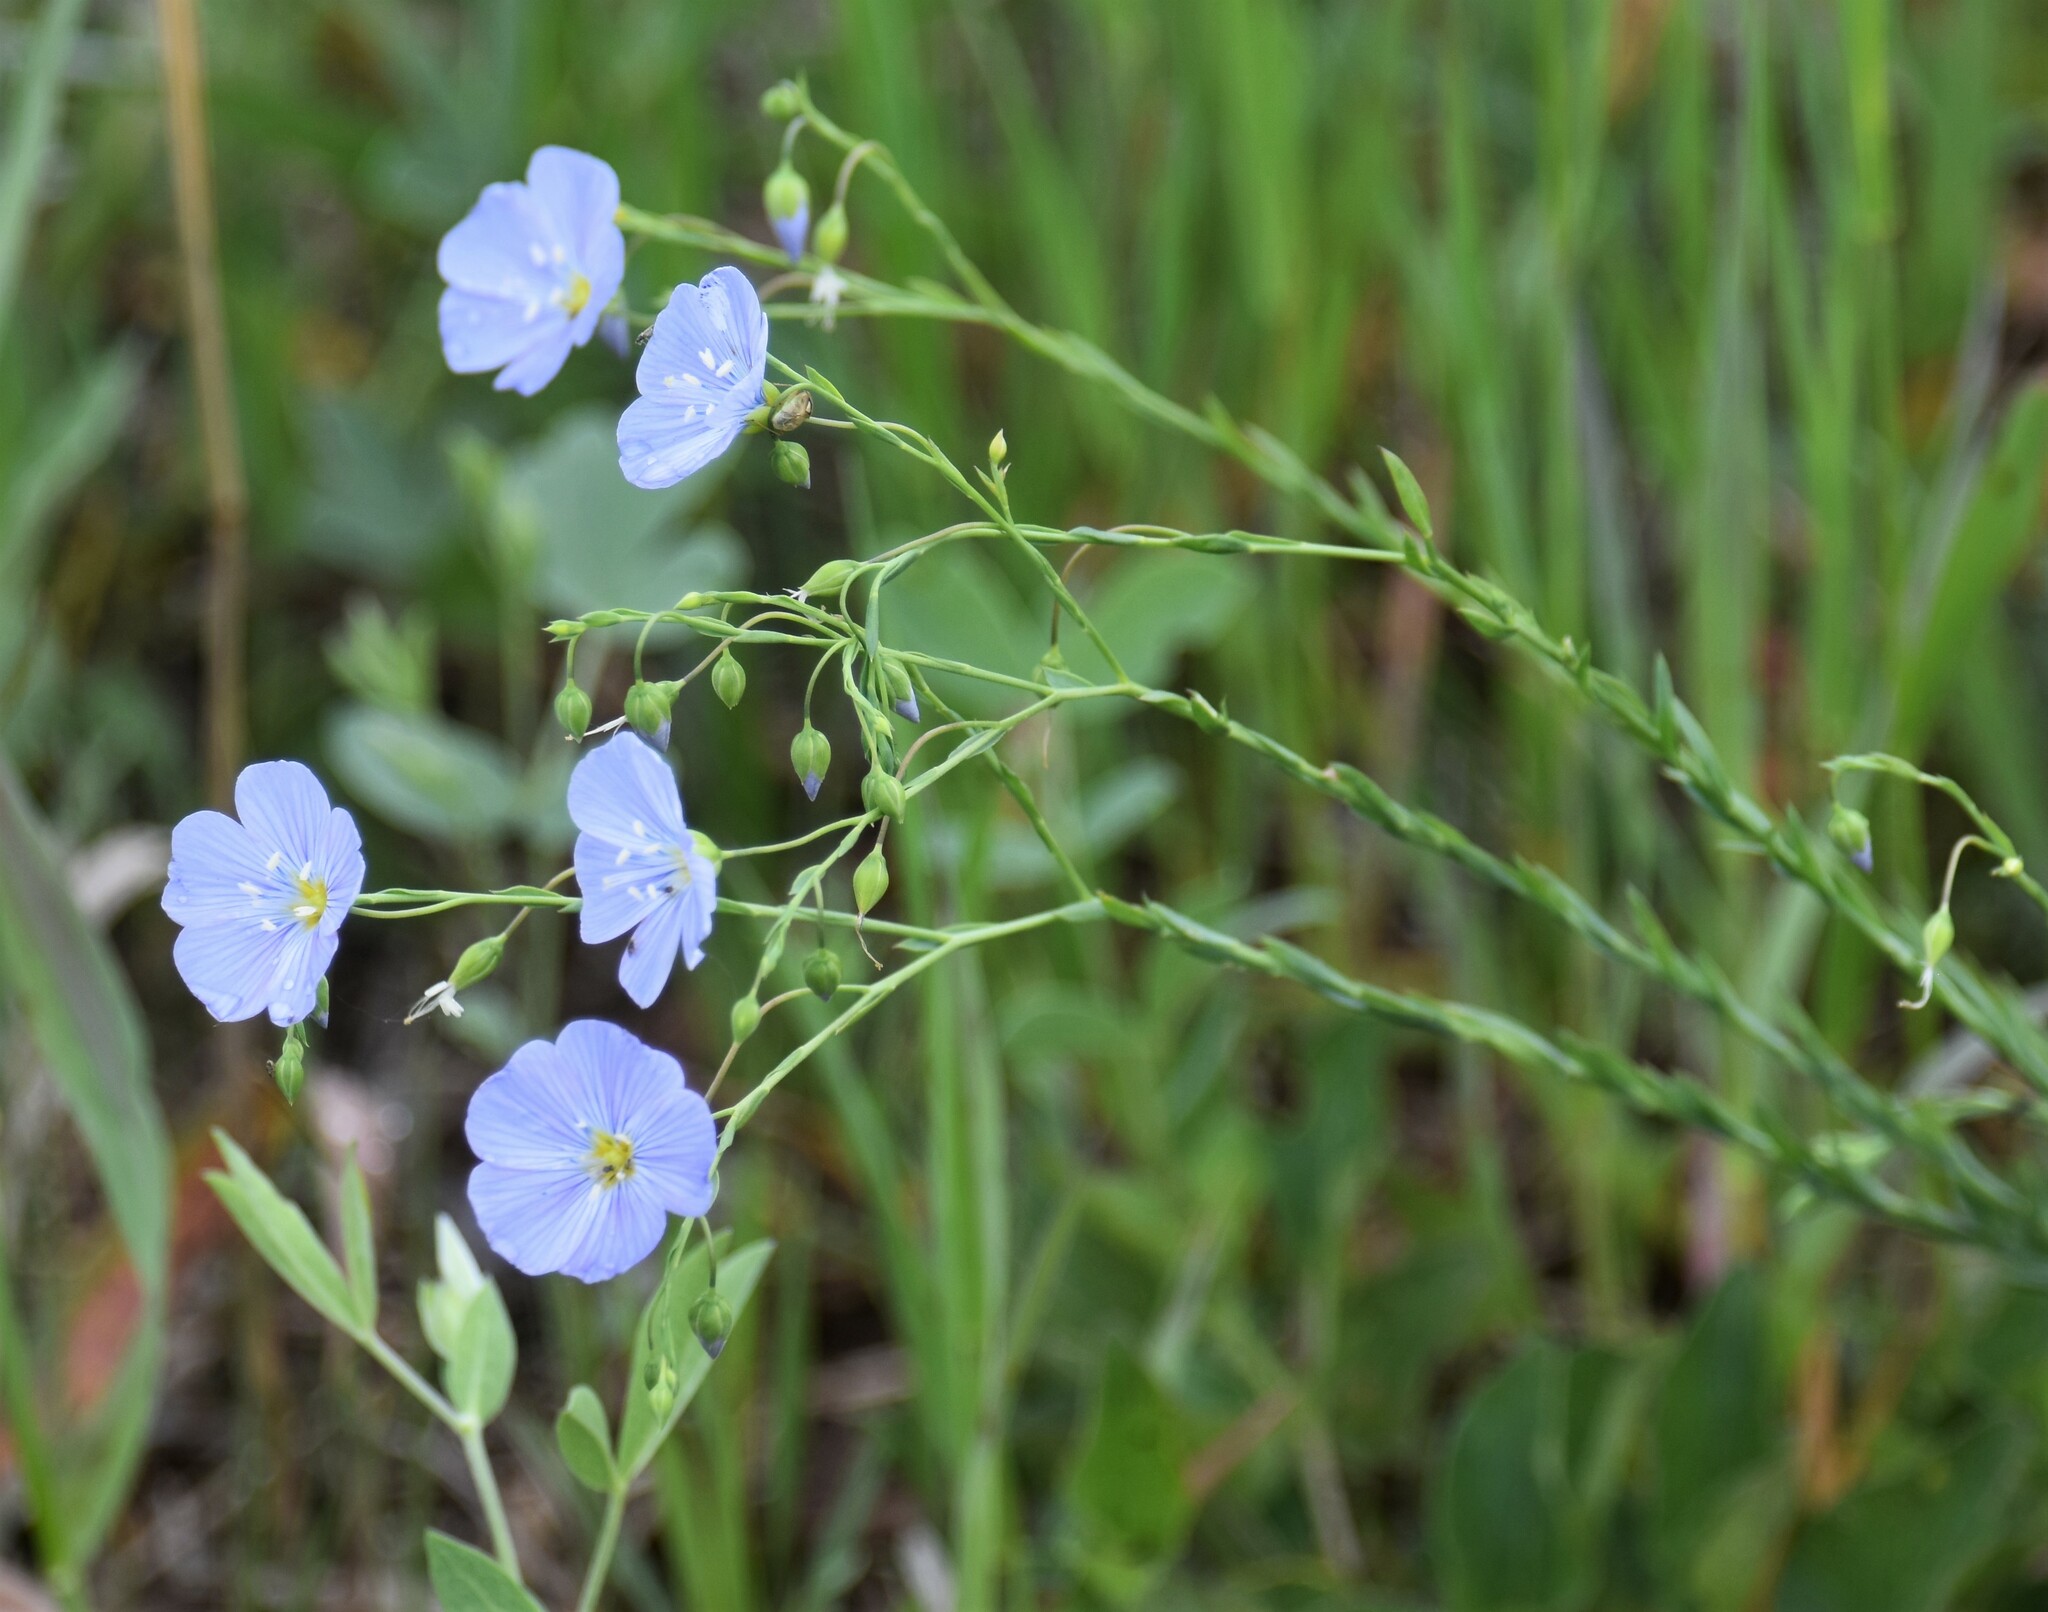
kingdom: Plantae
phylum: Tracheophyta
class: Magnoliopsida
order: Malpighiales
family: Linaceae
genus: Linum
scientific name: Linum lewisii
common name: Prairie flax
